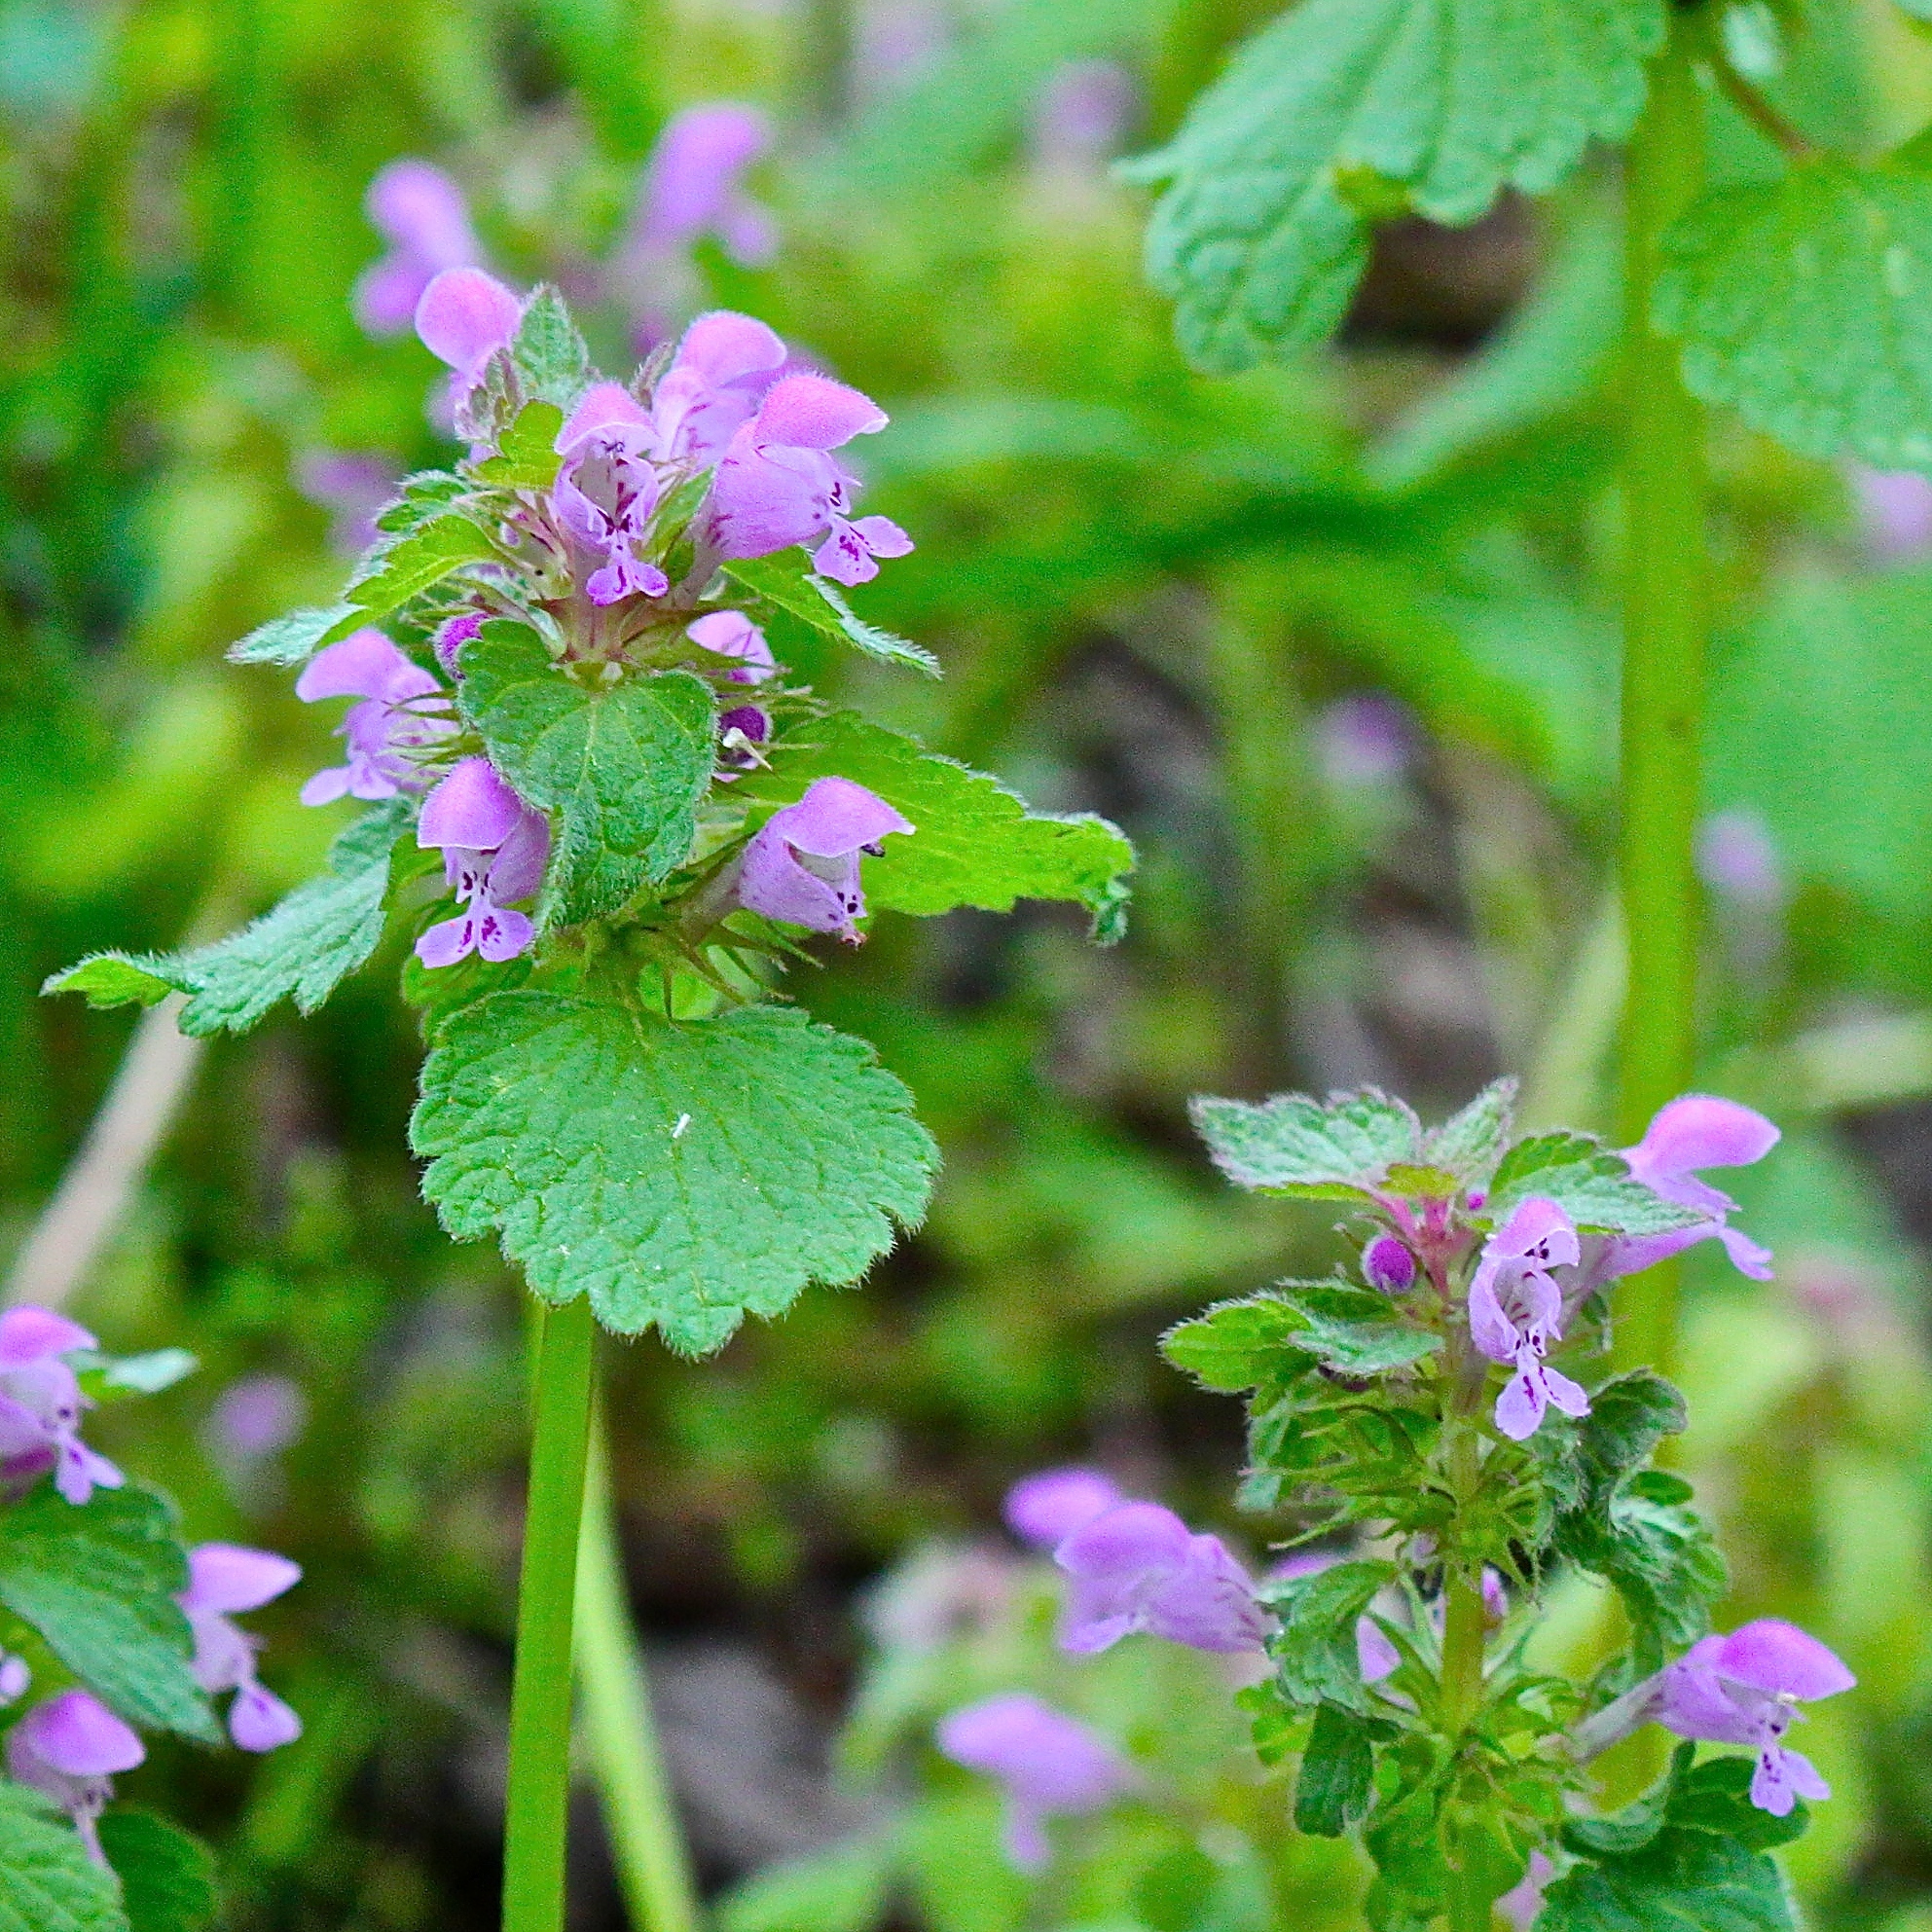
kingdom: Plantae
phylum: Tracheophyta
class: Magnoliopsida
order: Lamiales
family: Lamiaceae
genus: Lamium
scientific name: Lamium amplexicaule
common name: Henbit dead-nettle
